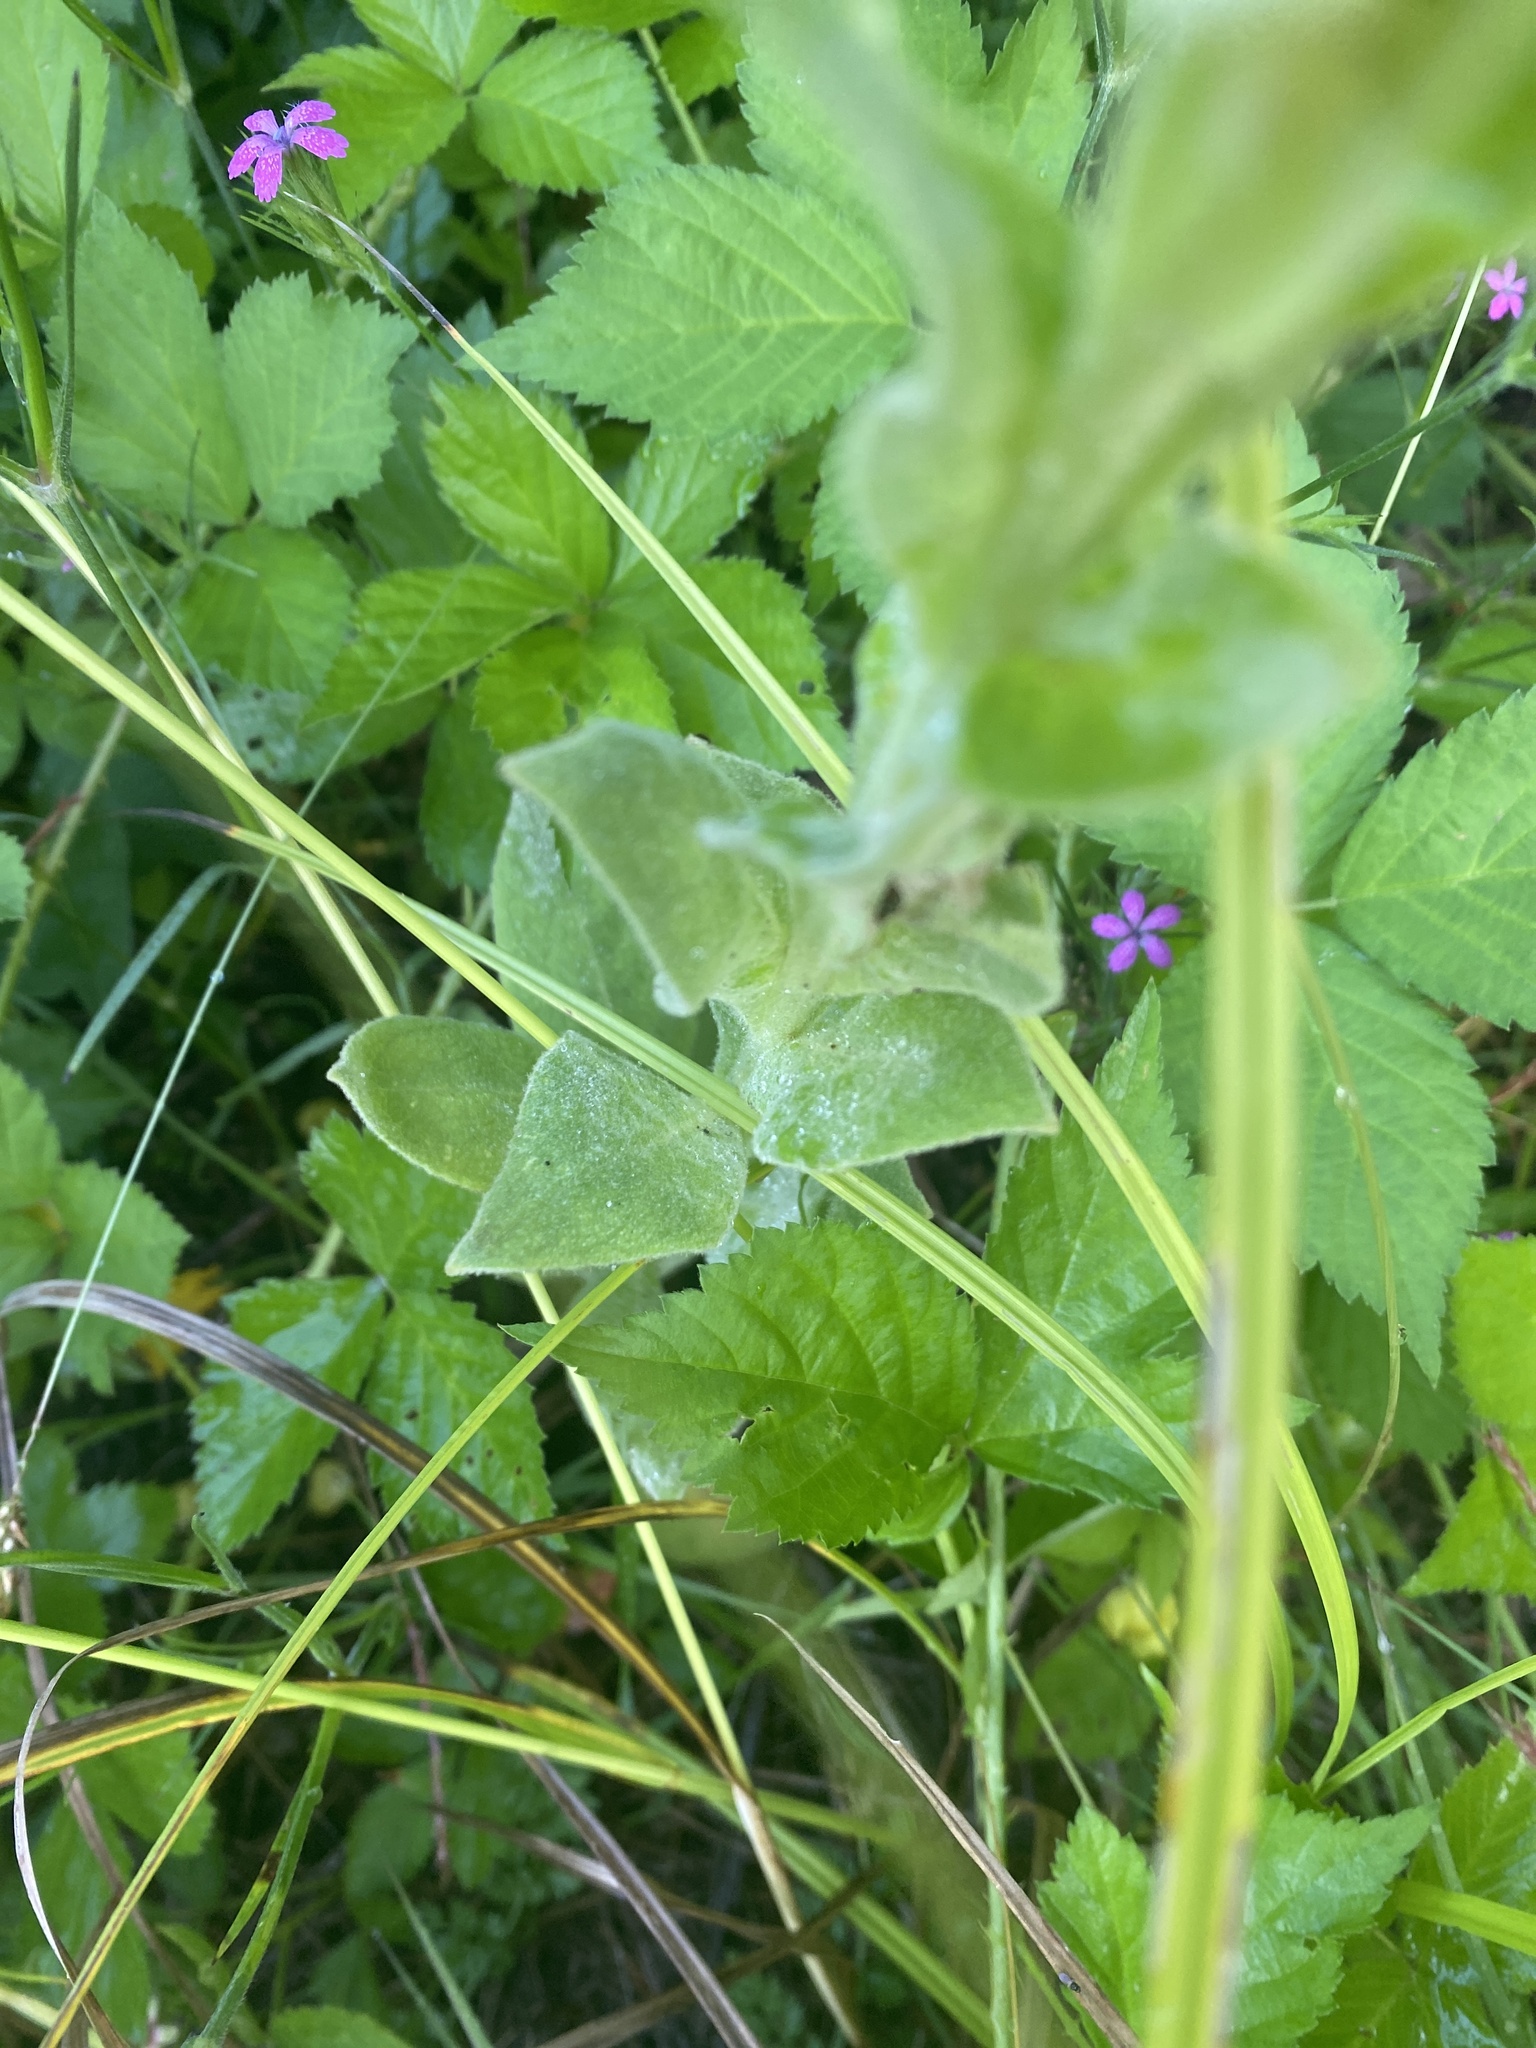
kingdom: Plantae
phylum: Tracheophyta
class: Magnoliopsida
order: Lamiales
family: Scrophulariaceae
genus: Verbascum
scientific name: Verbascum thapsus
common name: Common mullein
